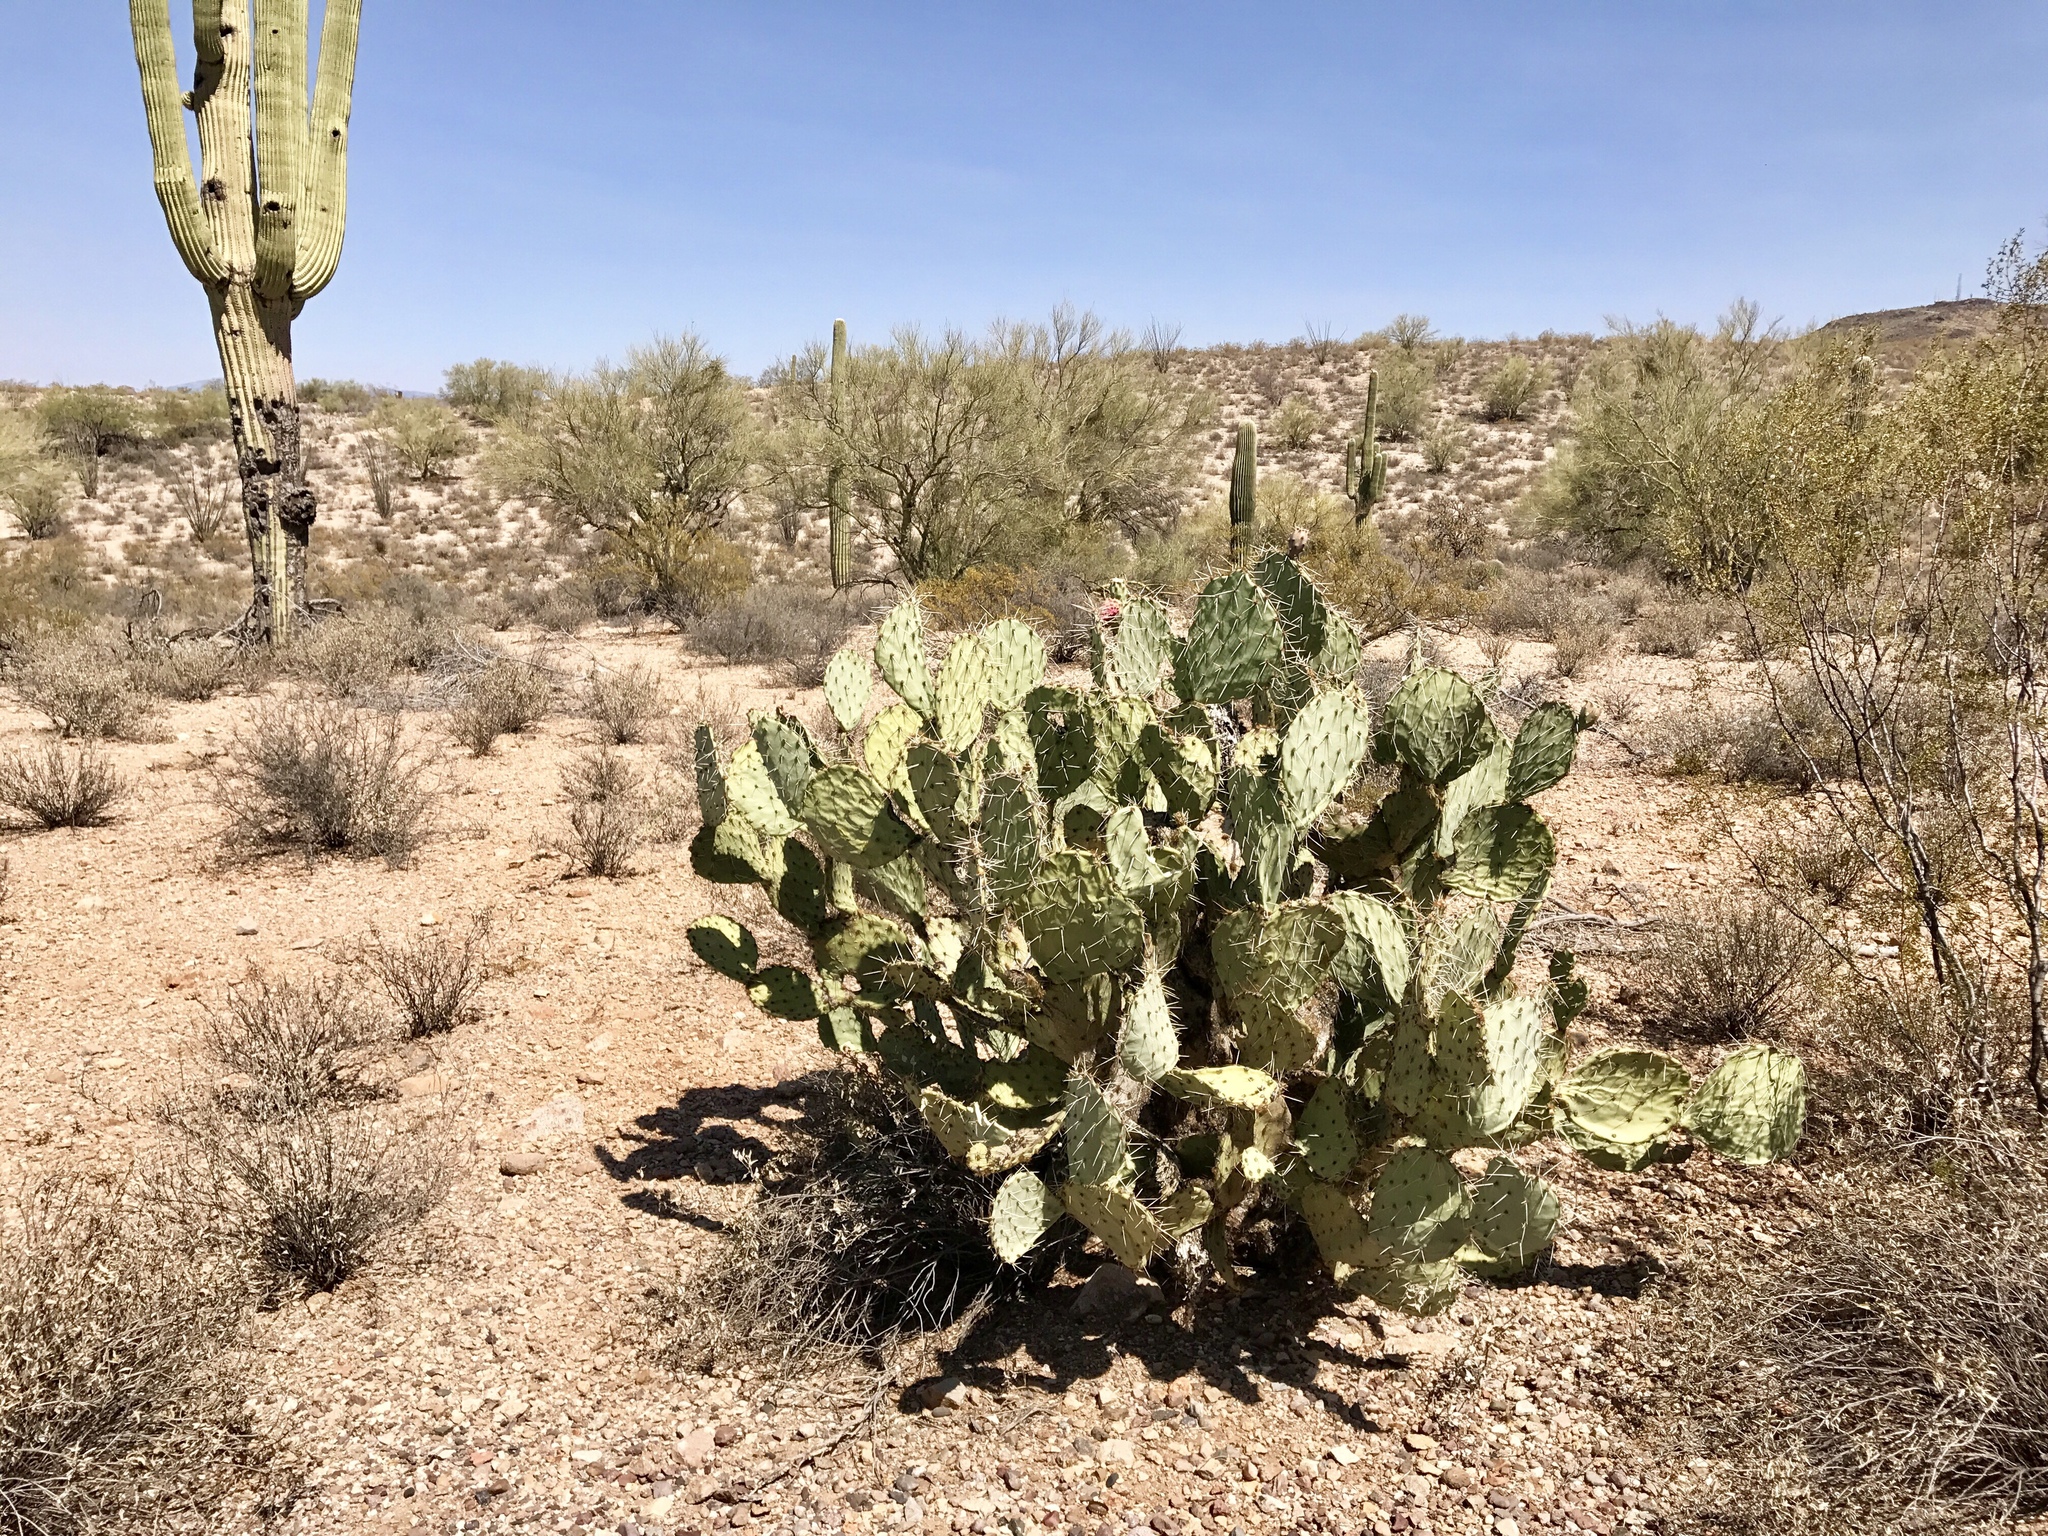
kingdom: Plantae
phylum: Tracheophyta
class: Magnoliopsida
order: Caryophyllales
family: Cactaceae
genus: Opuntia
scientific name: Opuntia engelmannii
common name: Cactus-apple
